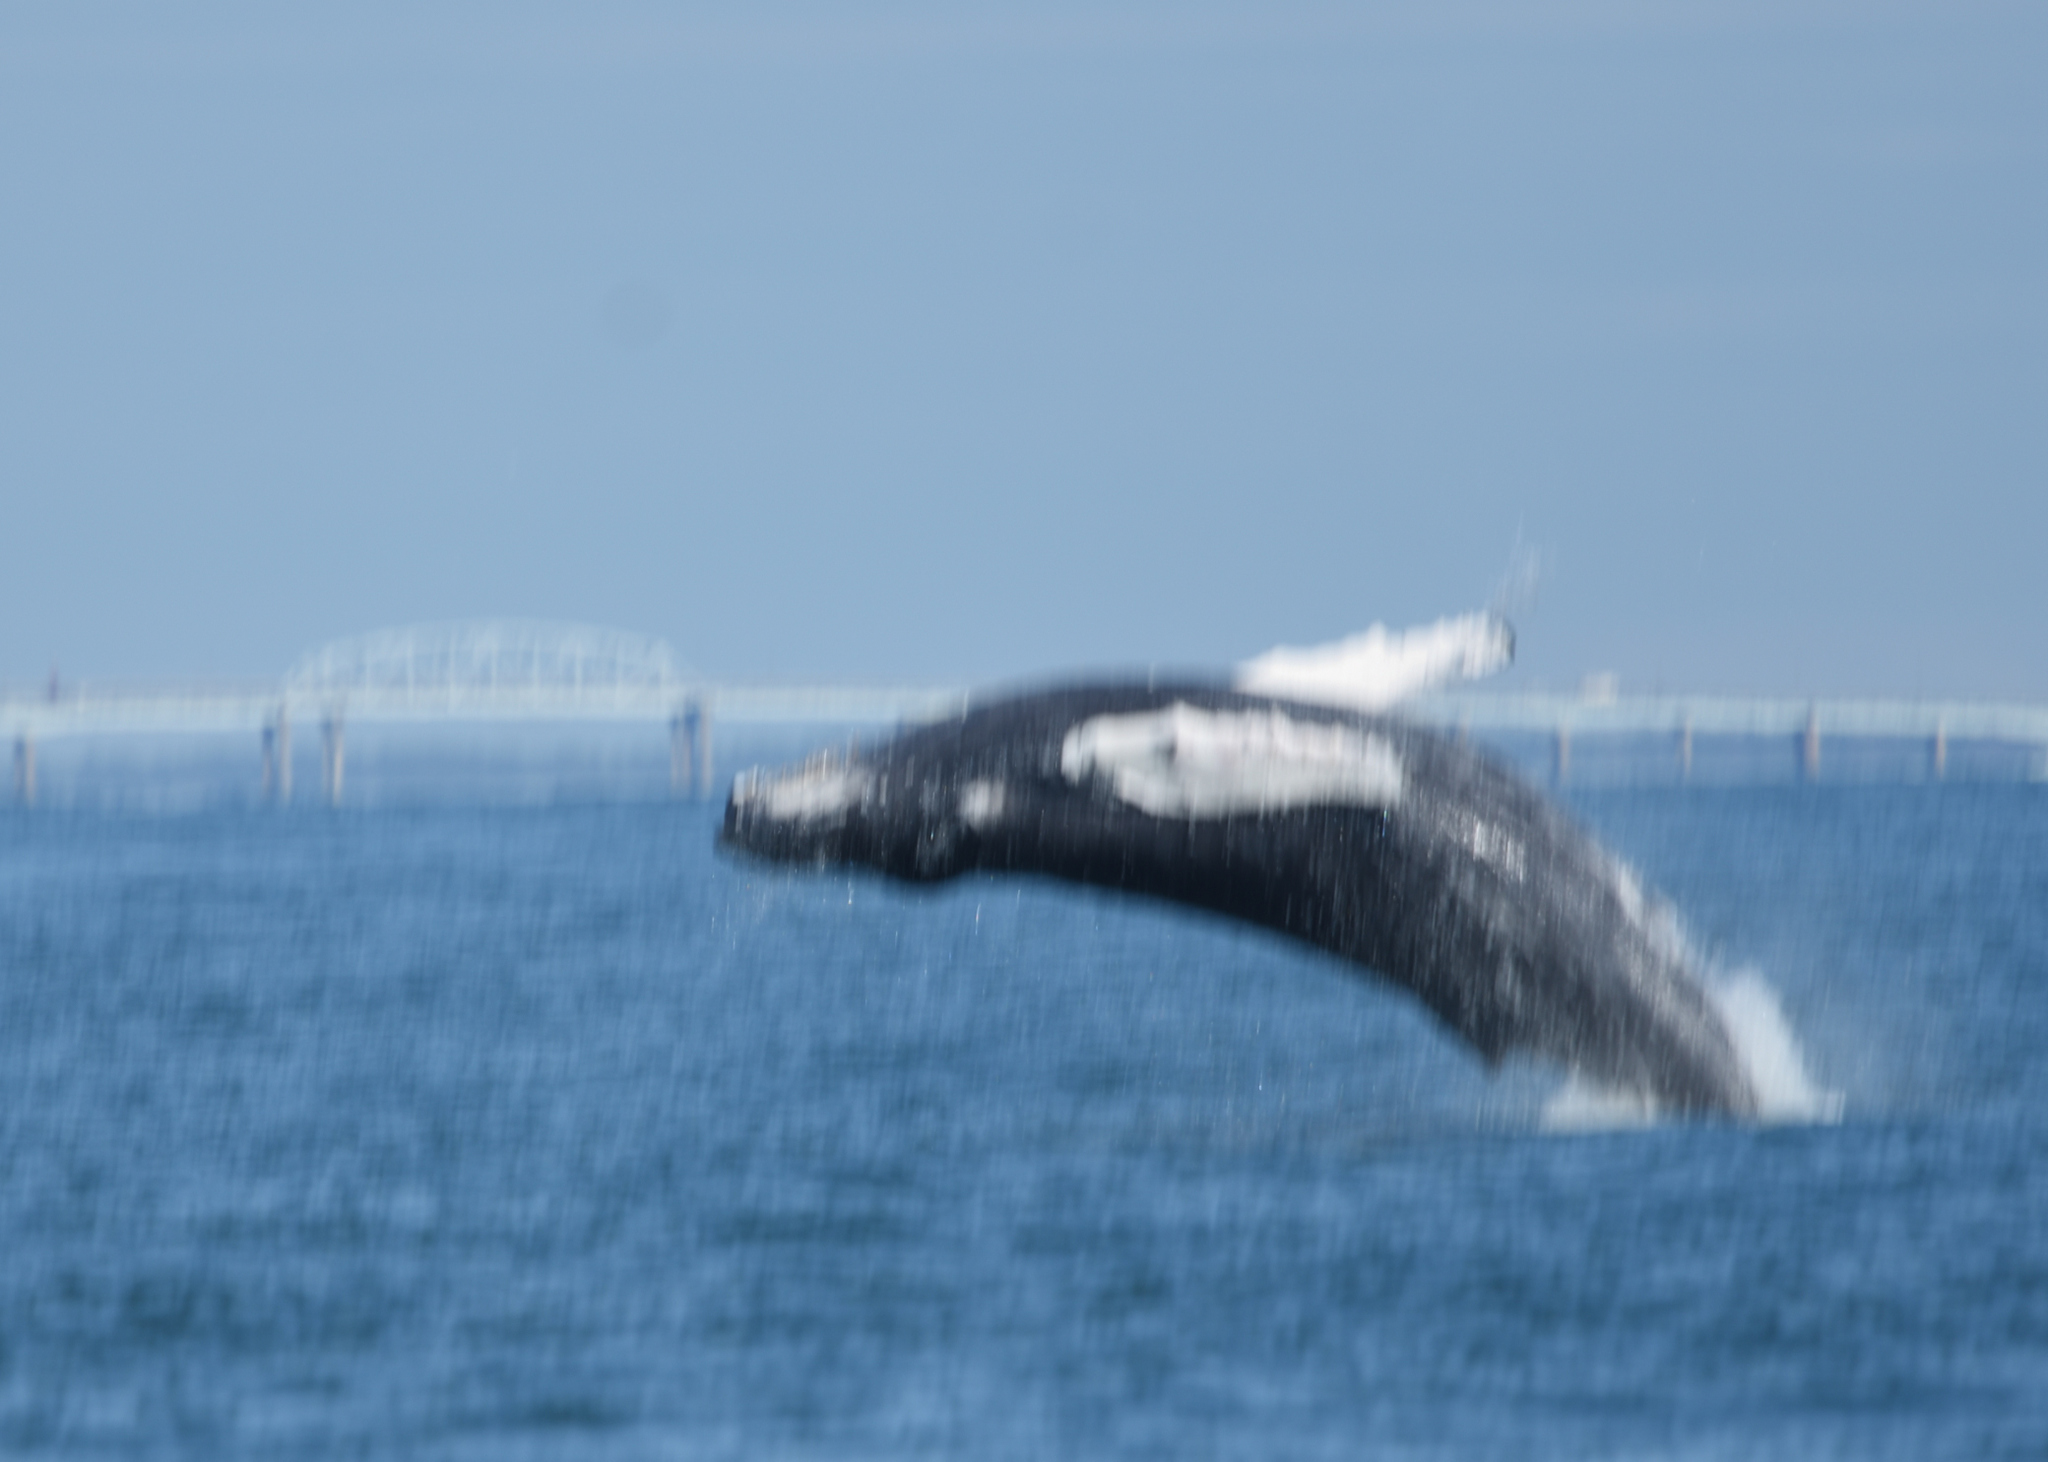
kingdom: Animalia
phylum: Chordata
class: Mammalia
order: Cetacea
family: Balaenopteridae
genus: Megaptera
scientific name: Megaptera novaeangliae
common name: Humpback whale
